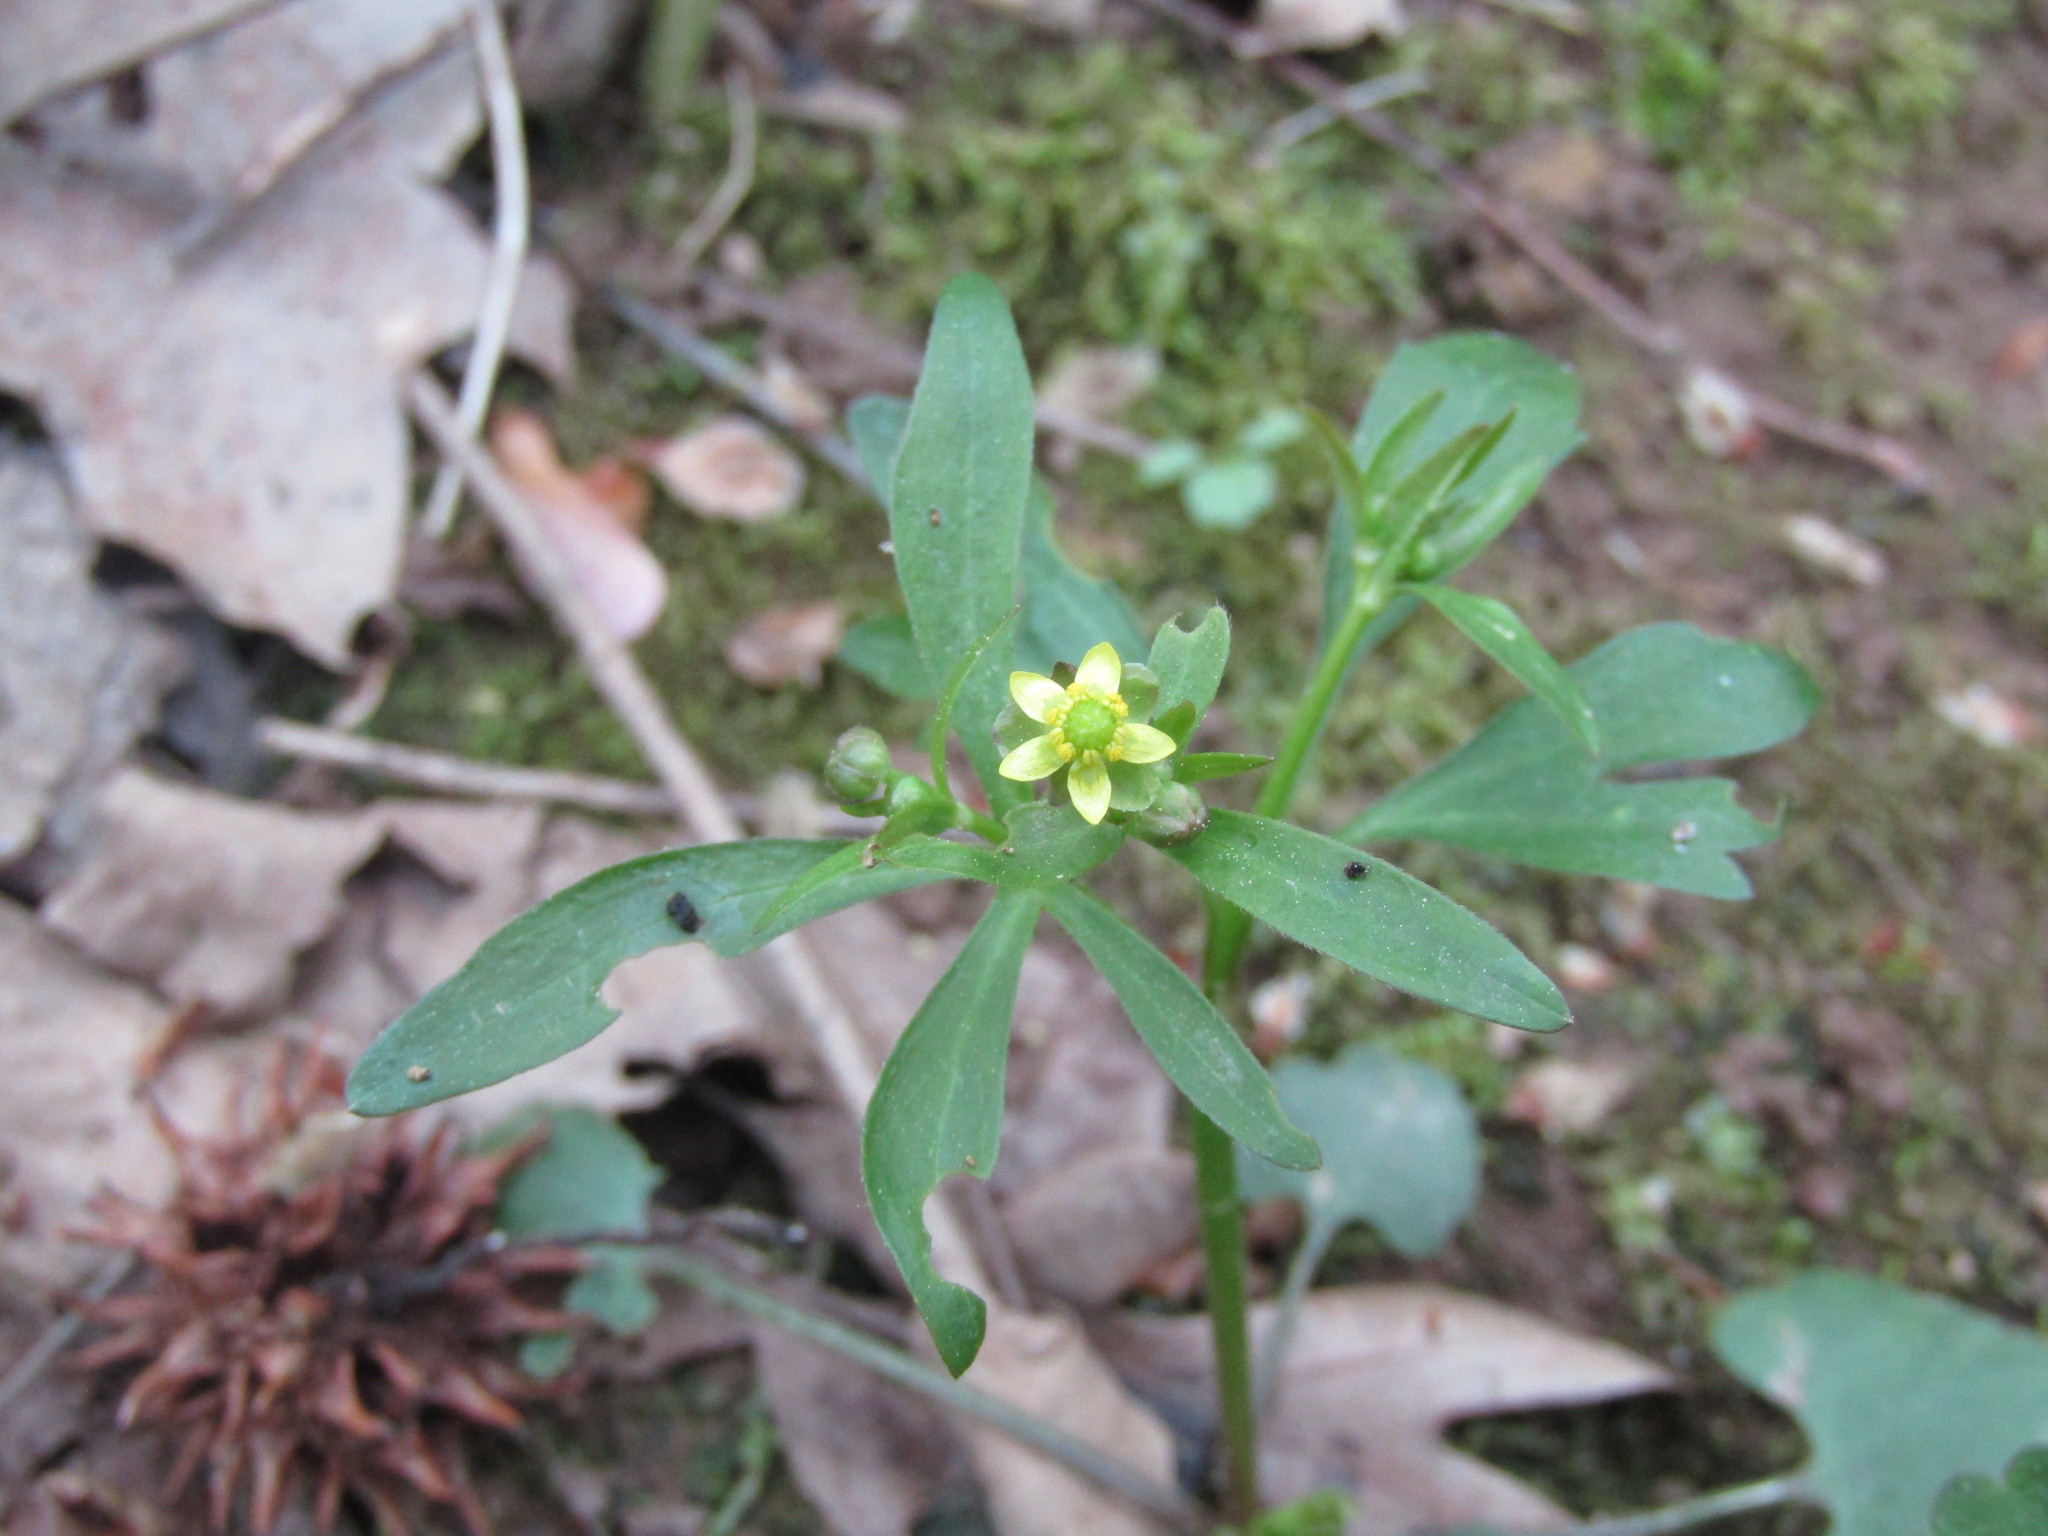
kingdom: Plantae
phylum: Tracheophyta
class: Magnoliopsida
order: Ranunculales
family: Ranunculaceae
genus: Ranunculus
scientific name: Ranunculus abortivus
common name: Early wood buttercup
